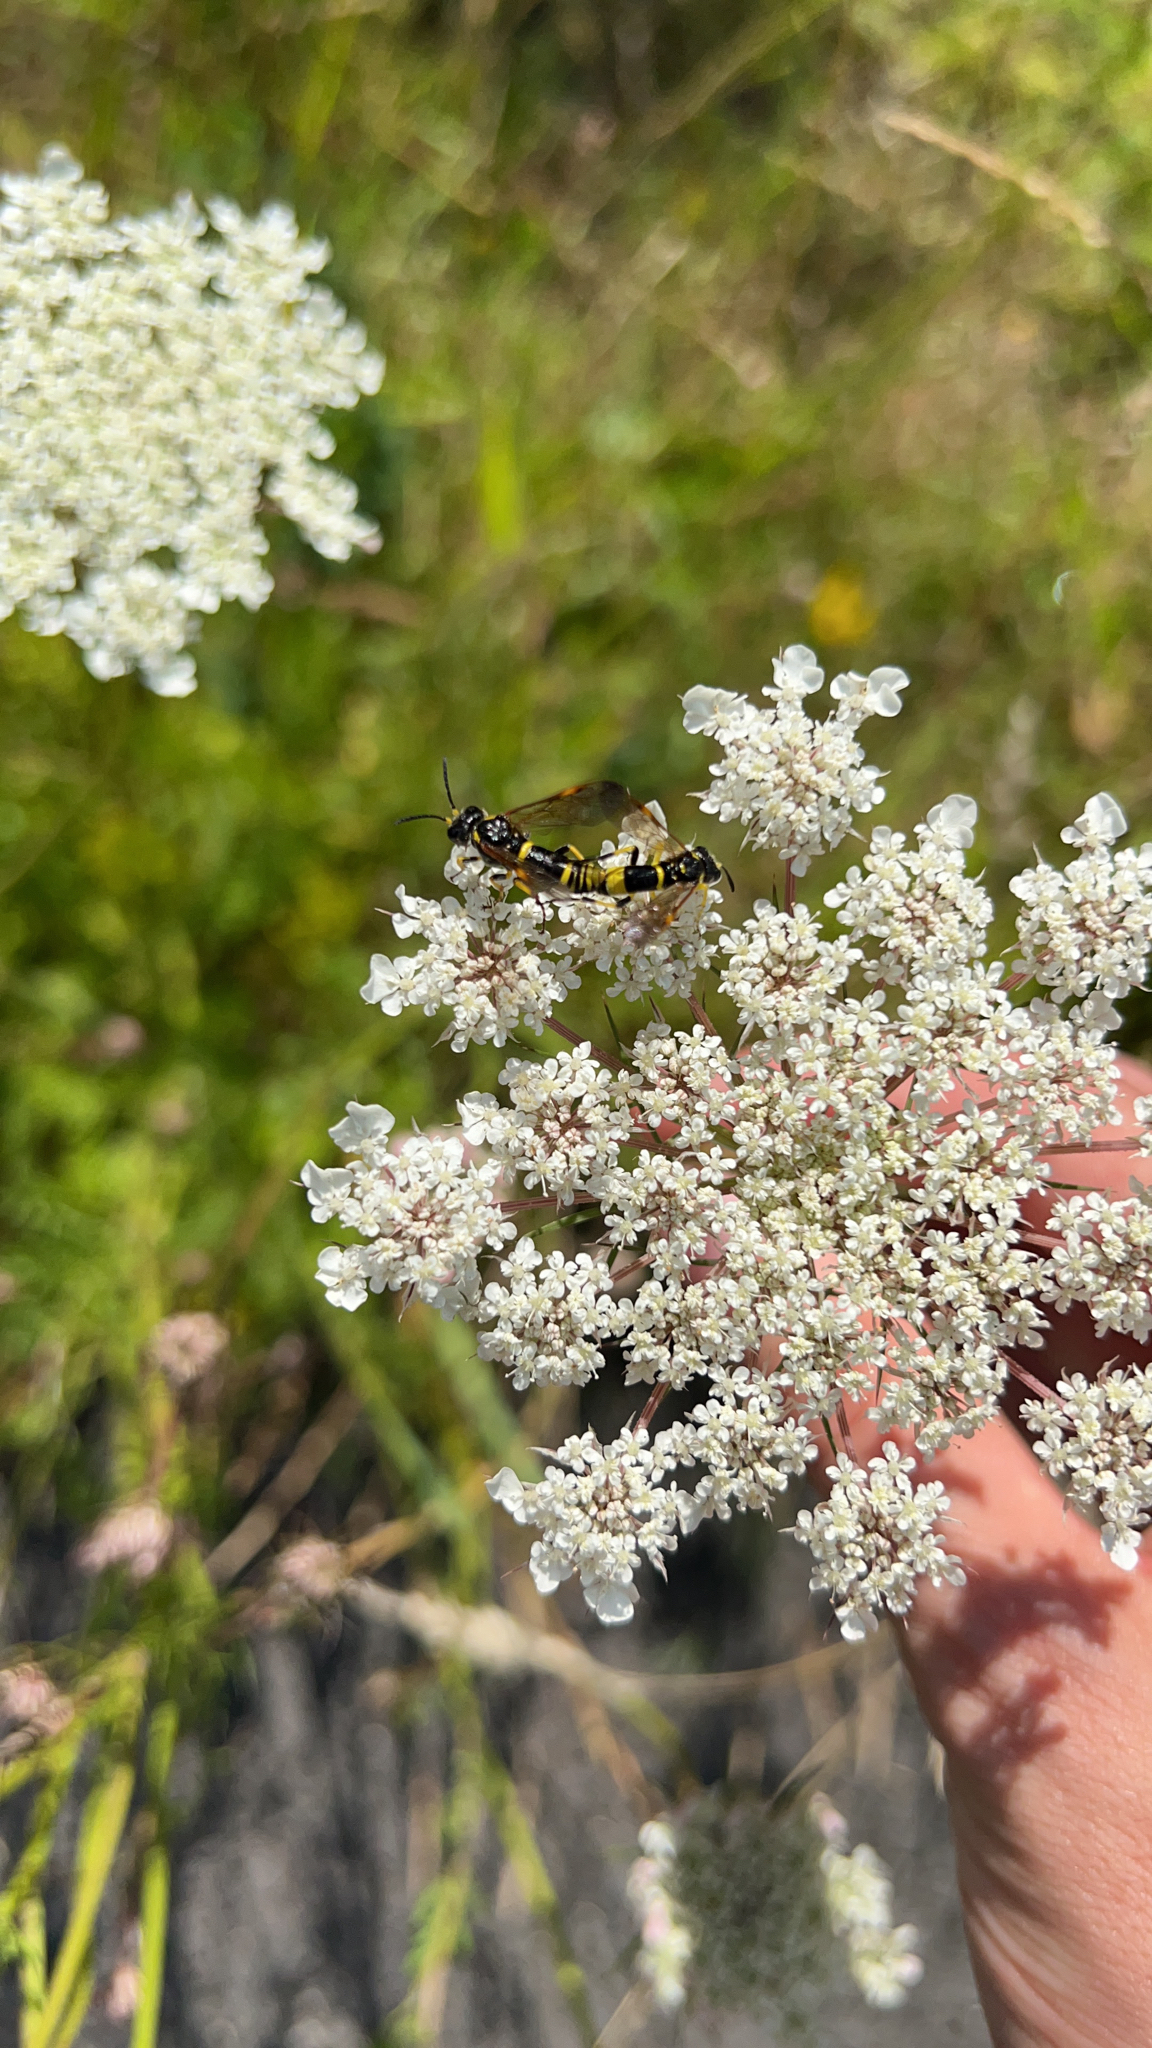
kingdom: Animalia
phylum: Arthropoda
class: Insecta
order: Hymenoptera
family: Tenthredinidae
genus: Tenthredo
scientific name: Tenthredo amoena
